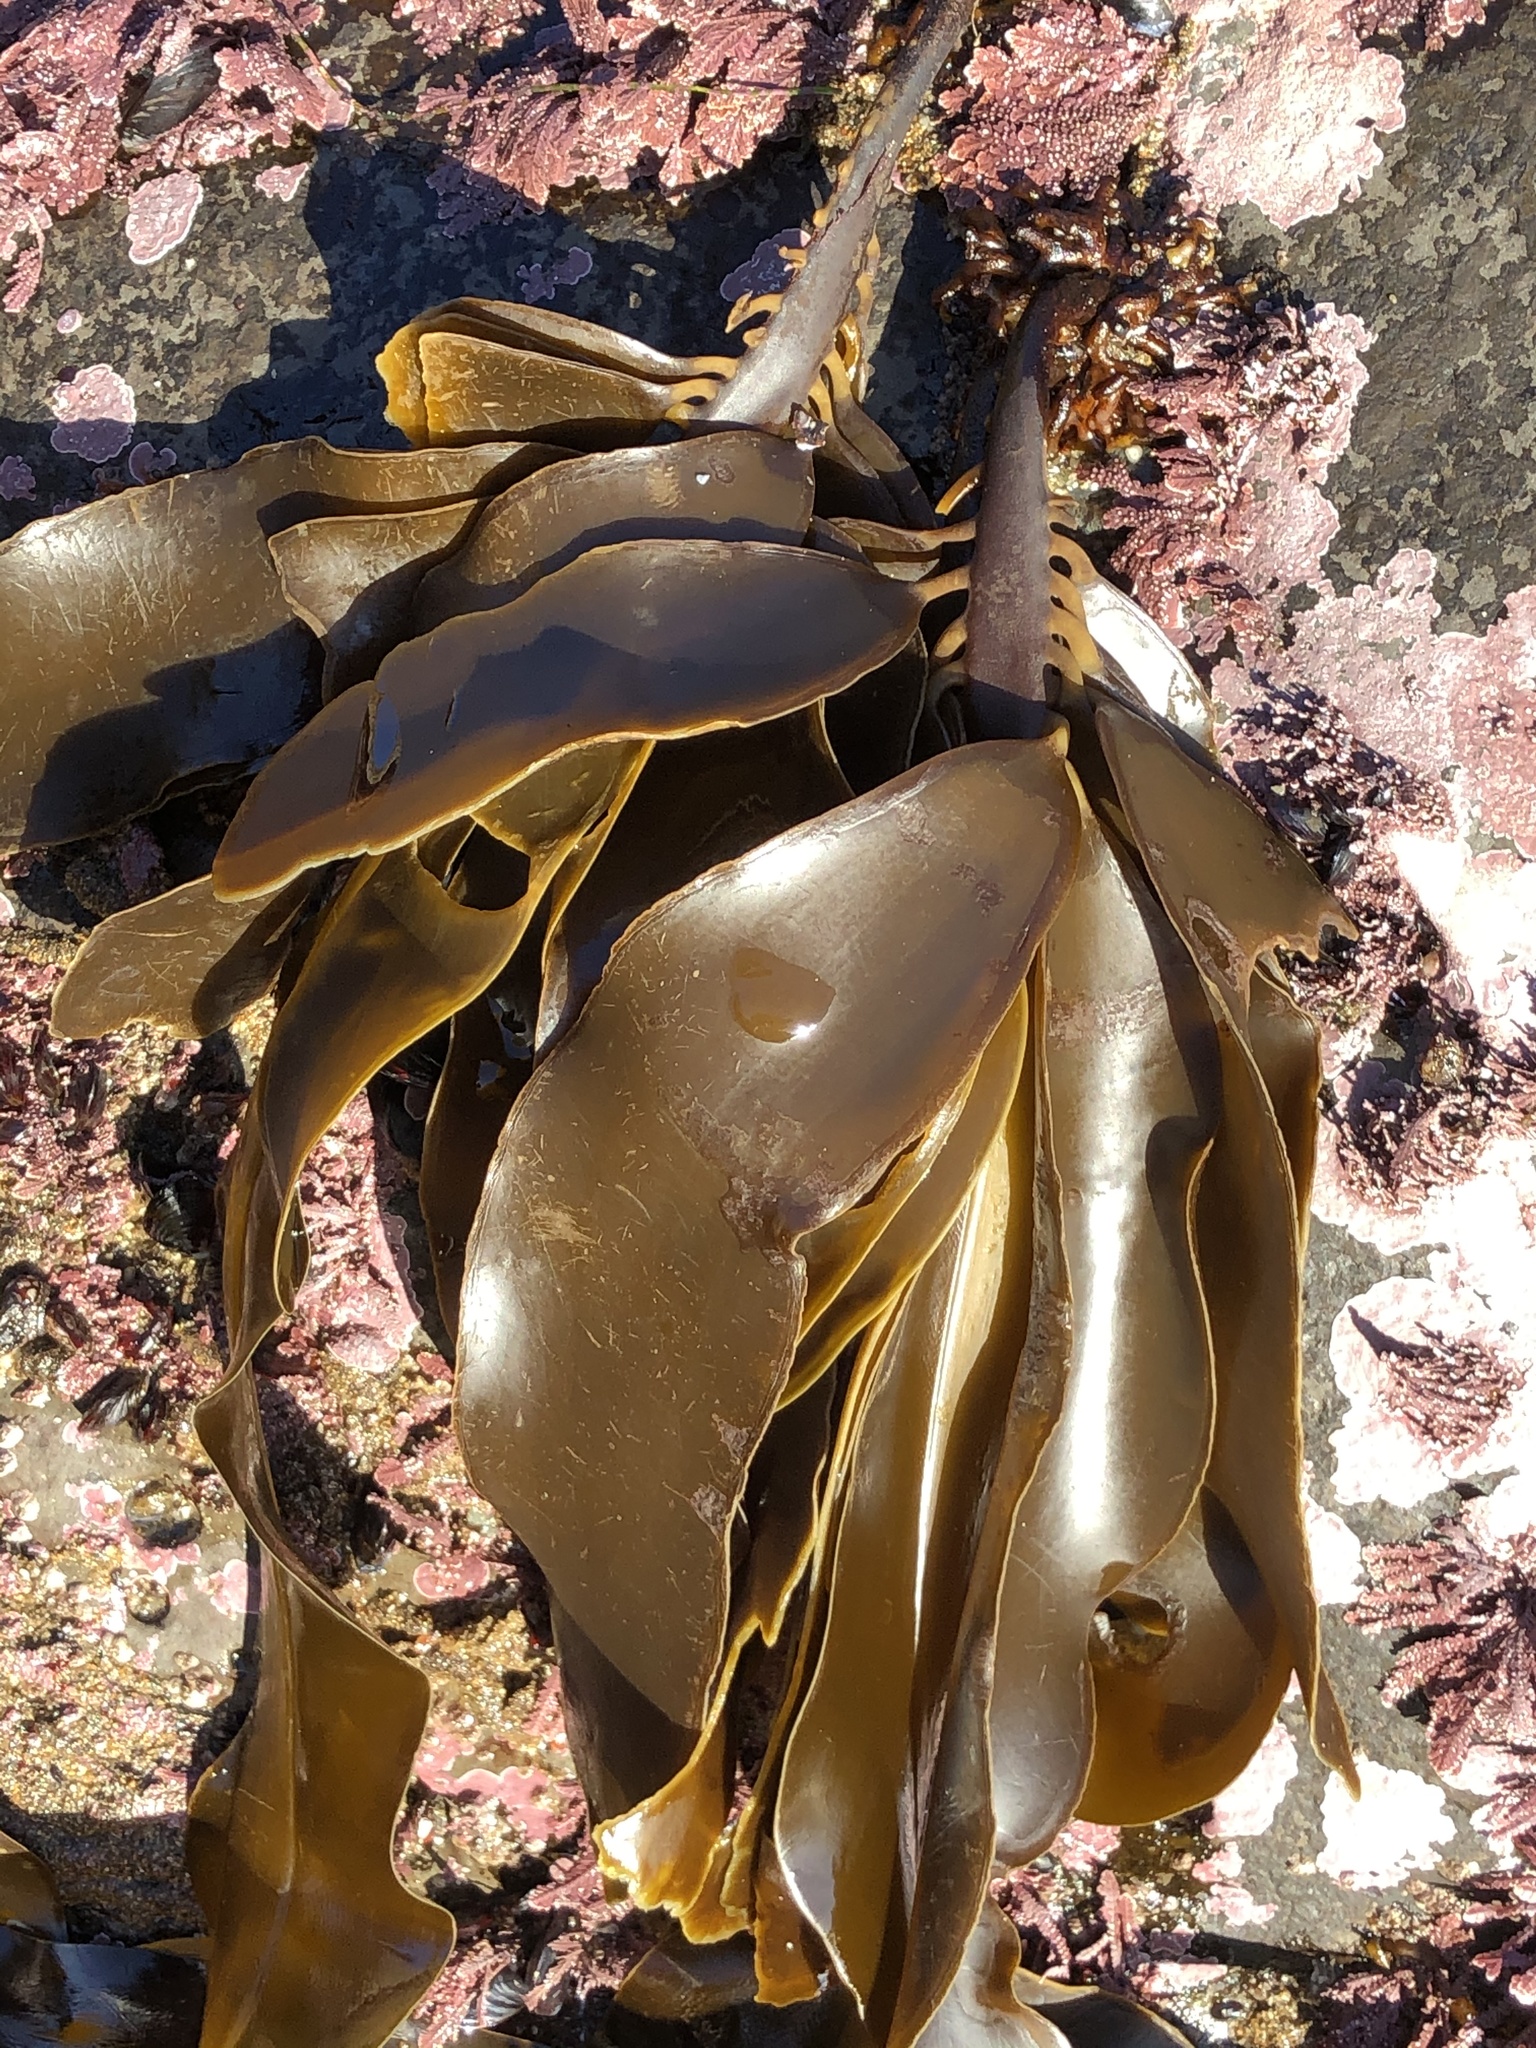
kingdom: Chromista
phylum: Ochrophyta
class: Phaeophyceae
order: Laminariales
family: Alariaceae
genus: Alaria
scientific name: Alaria marginata
